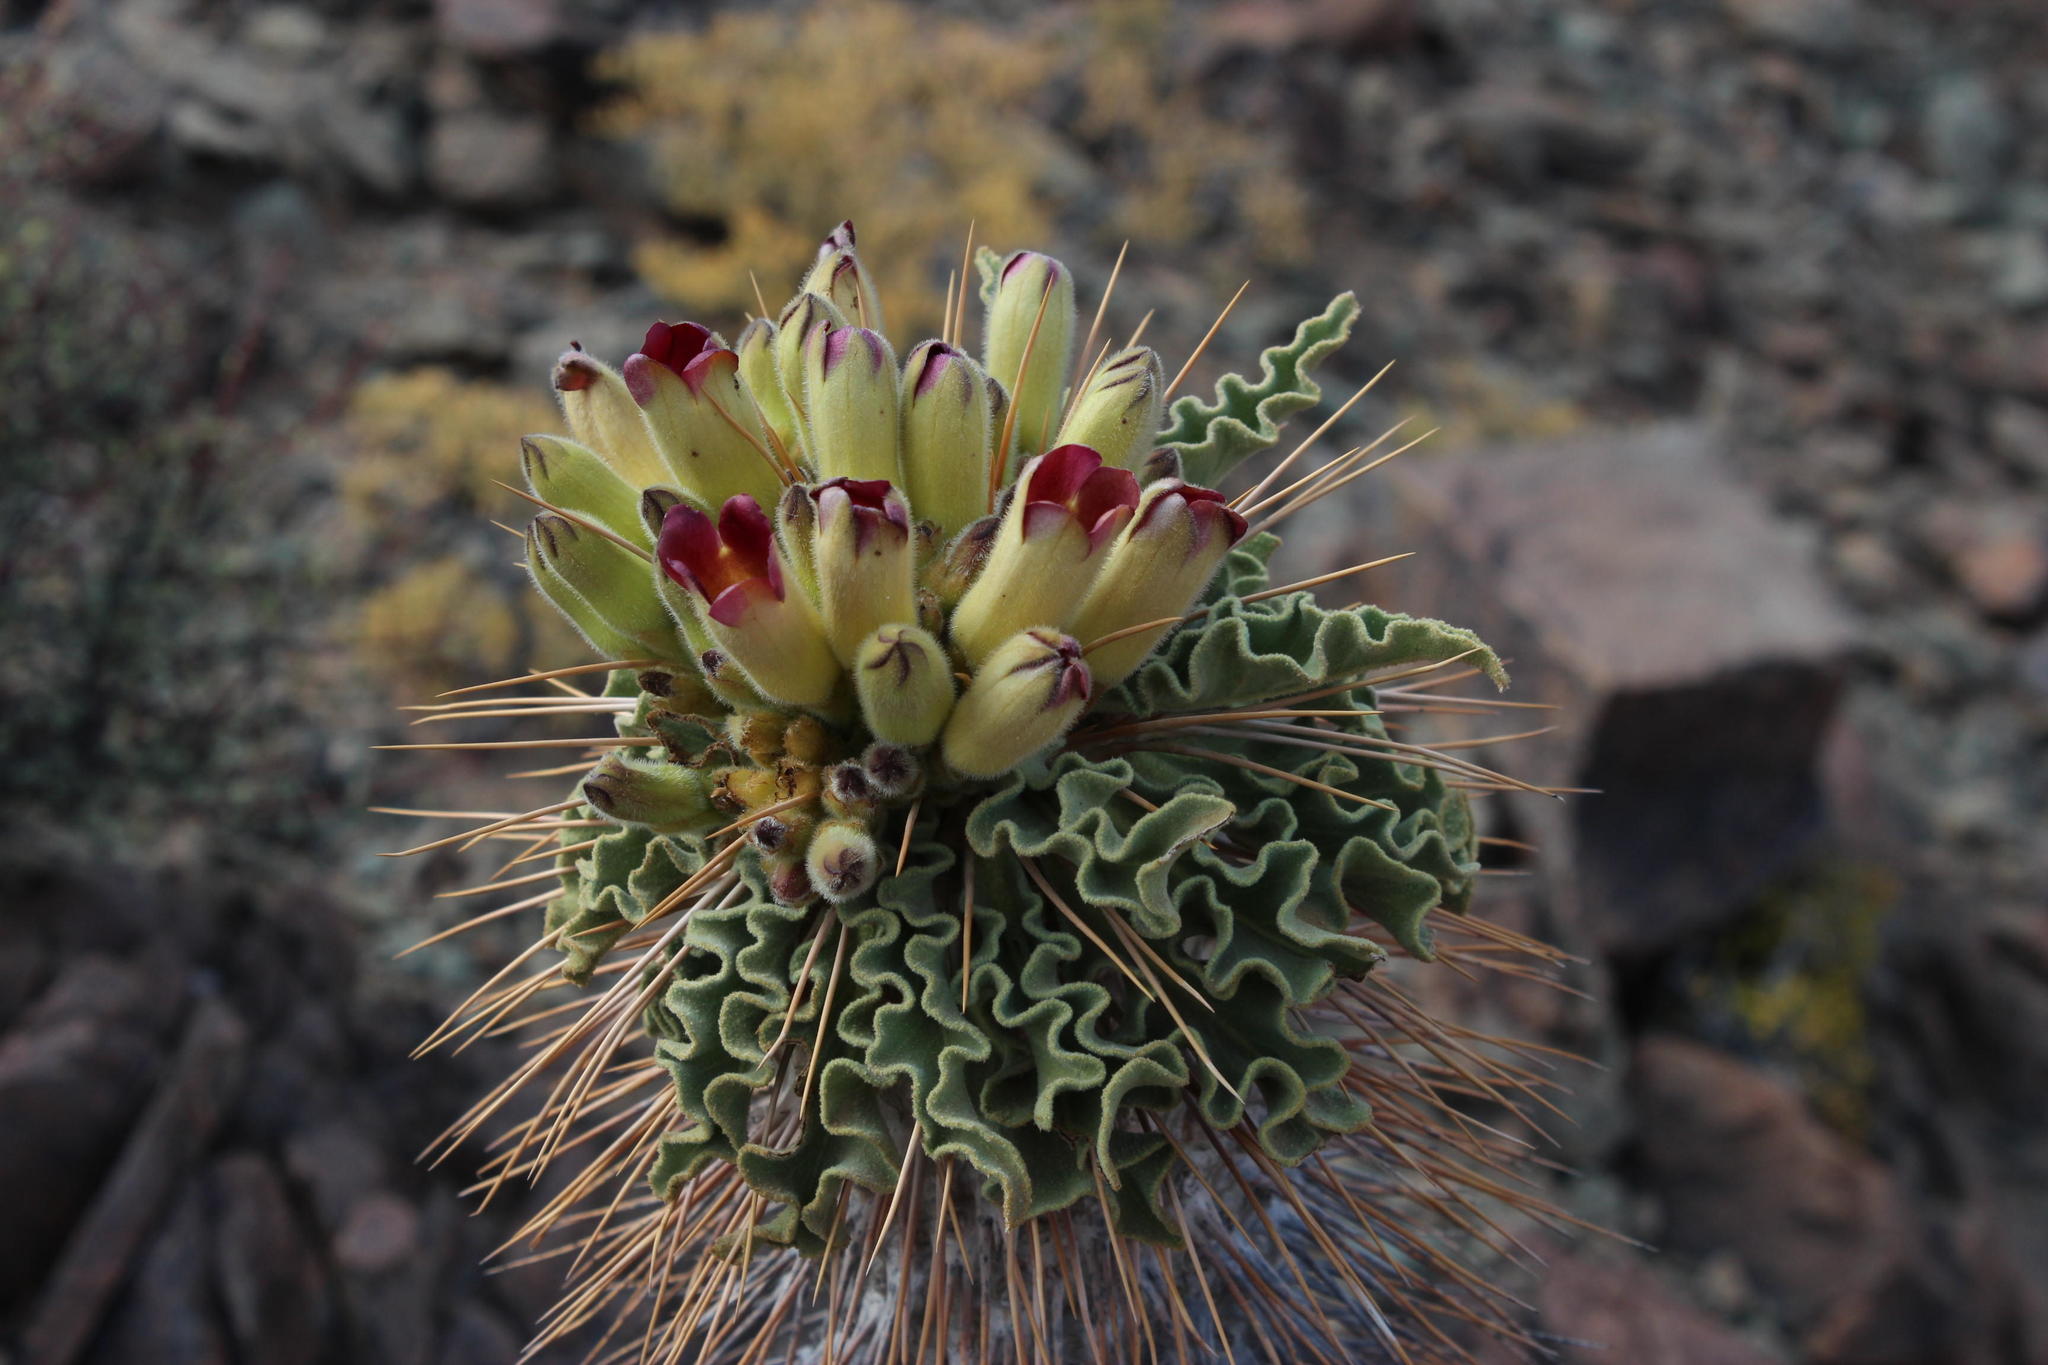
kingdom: Plantae
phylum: Tracheophyta
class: Magnoliopsida
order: Gentianales
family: Apocynaceae
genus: Pachypodium
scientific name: Pachypodium namaquanum
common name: Elephant's trunk
